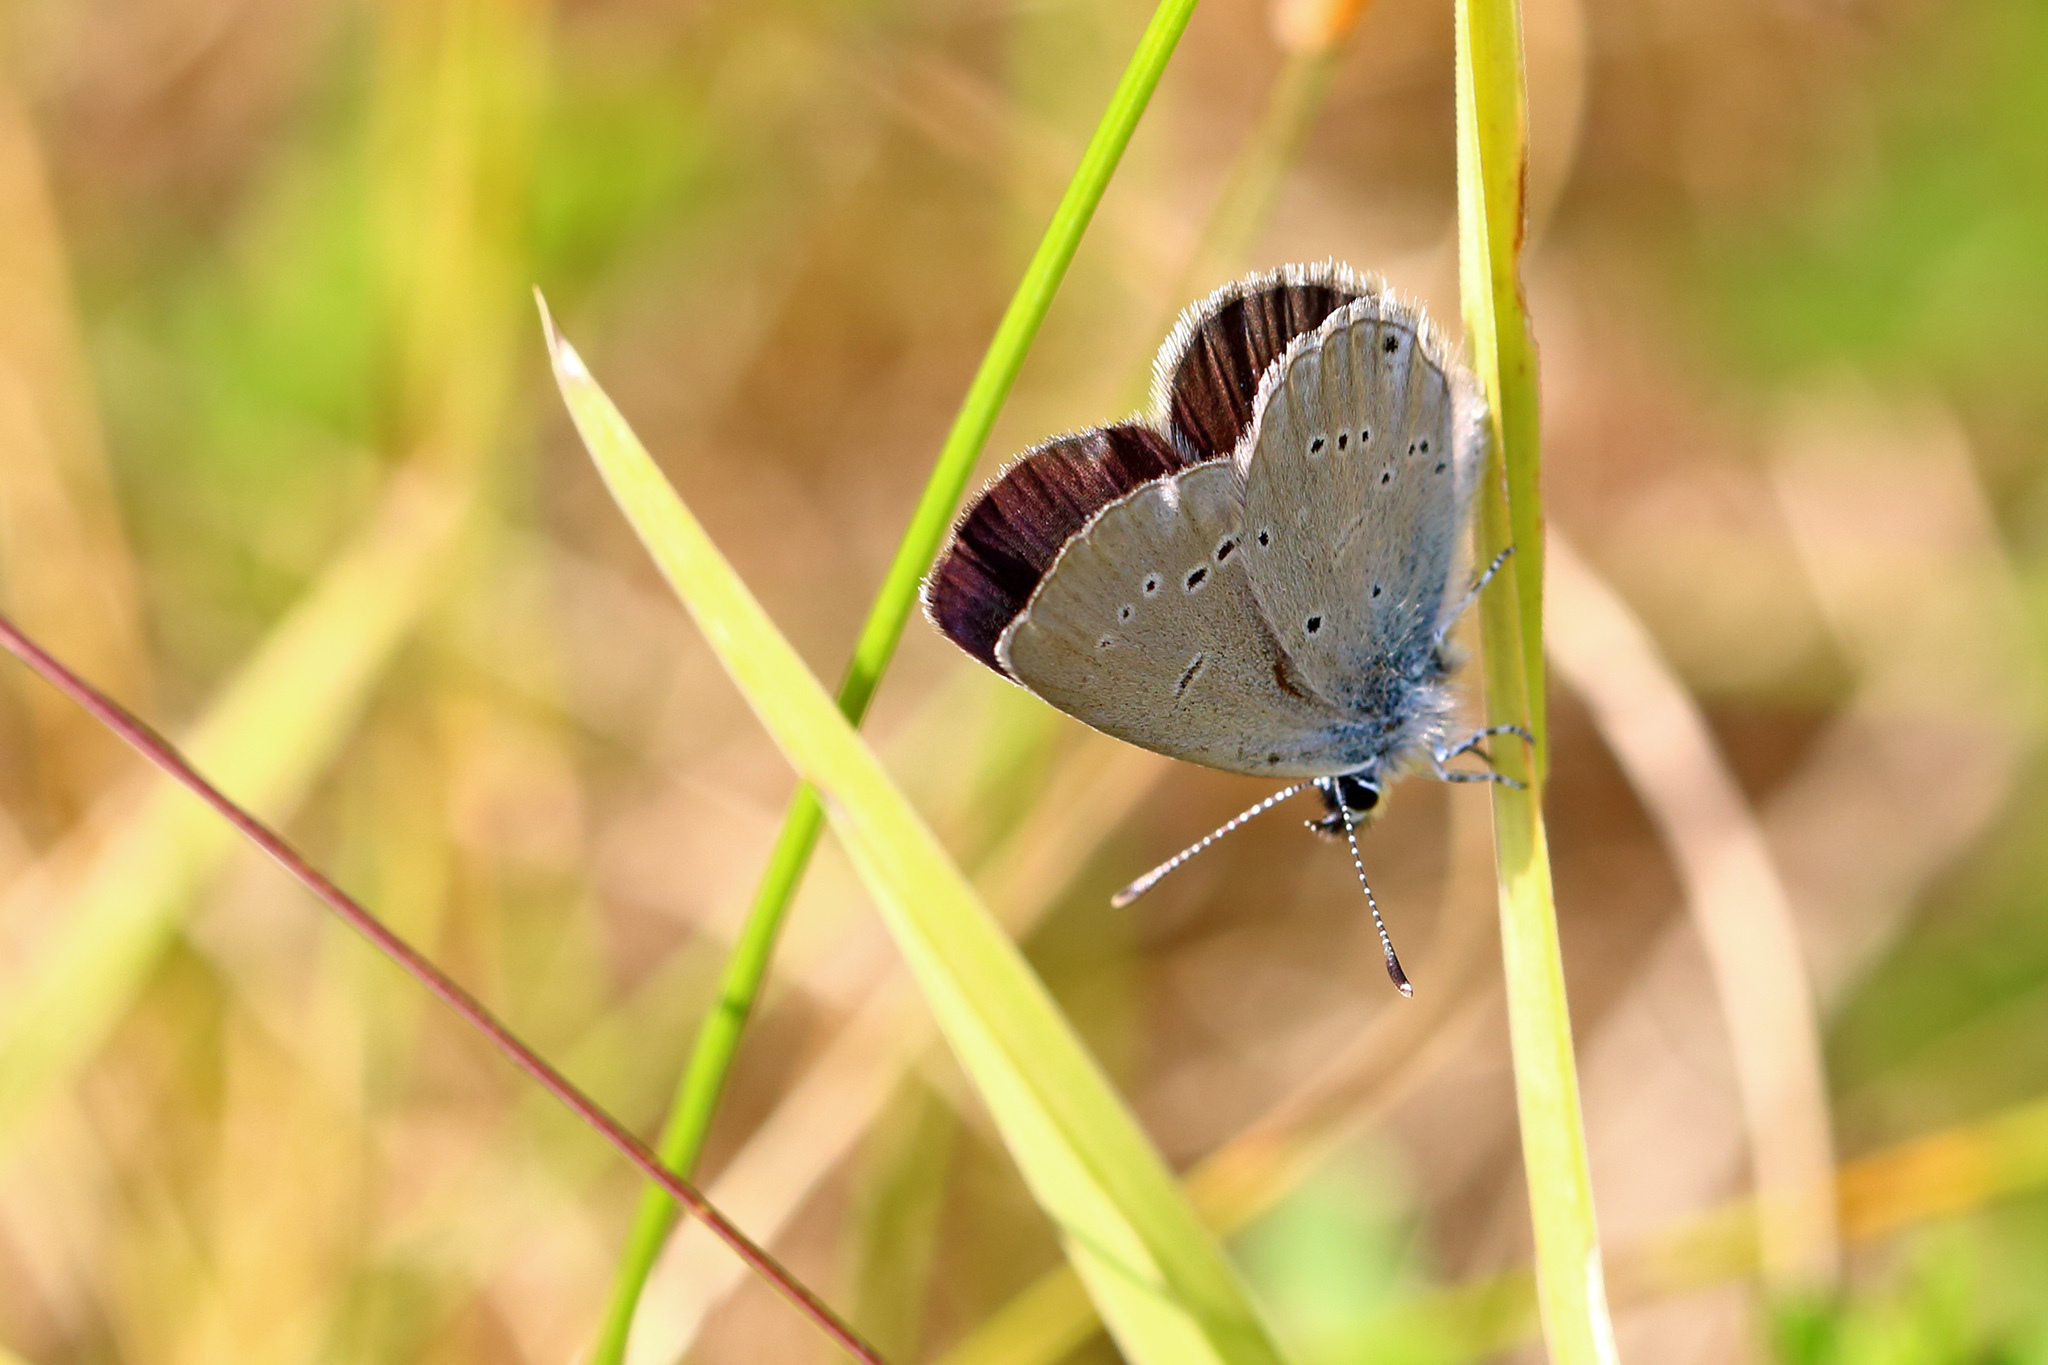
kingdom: Animalia
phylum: Arthropoda
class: Insecta
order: Lepidoptera
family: Lycaenidae
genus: Cupido
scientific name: Cupido minimus
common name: Small blue
